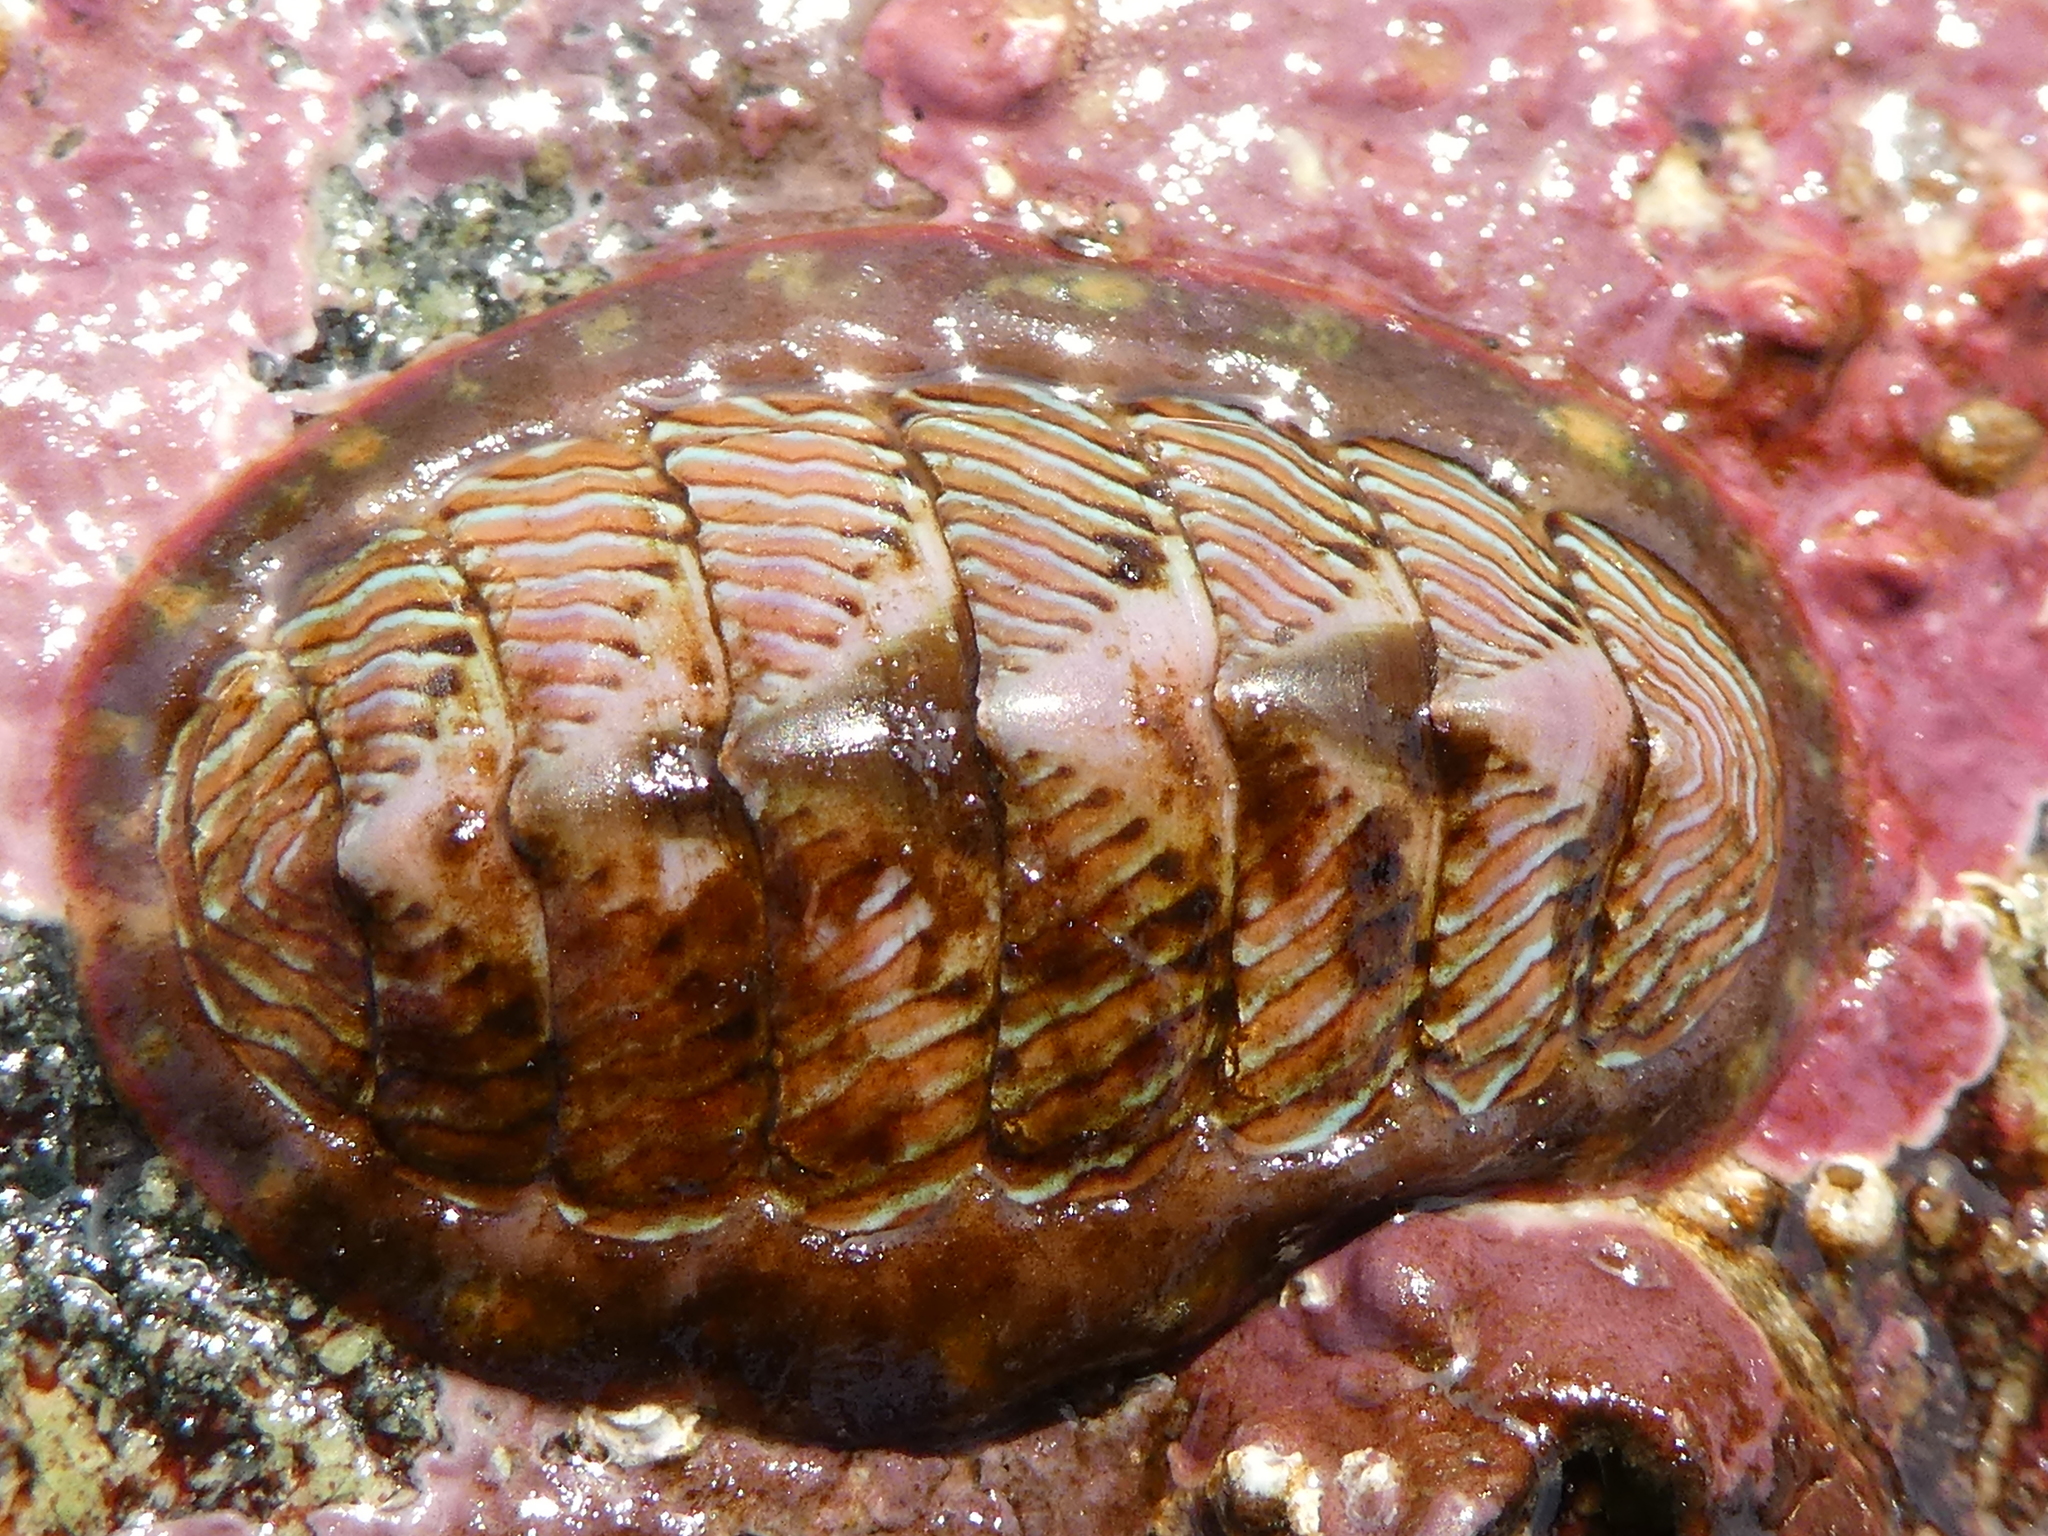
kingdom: Animalia
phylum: Mollusca
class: Polyplacophora
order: Chitonida
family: Tonicellidae
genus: Tonicella
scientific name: Tonicella lineata
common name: Lined chiton
